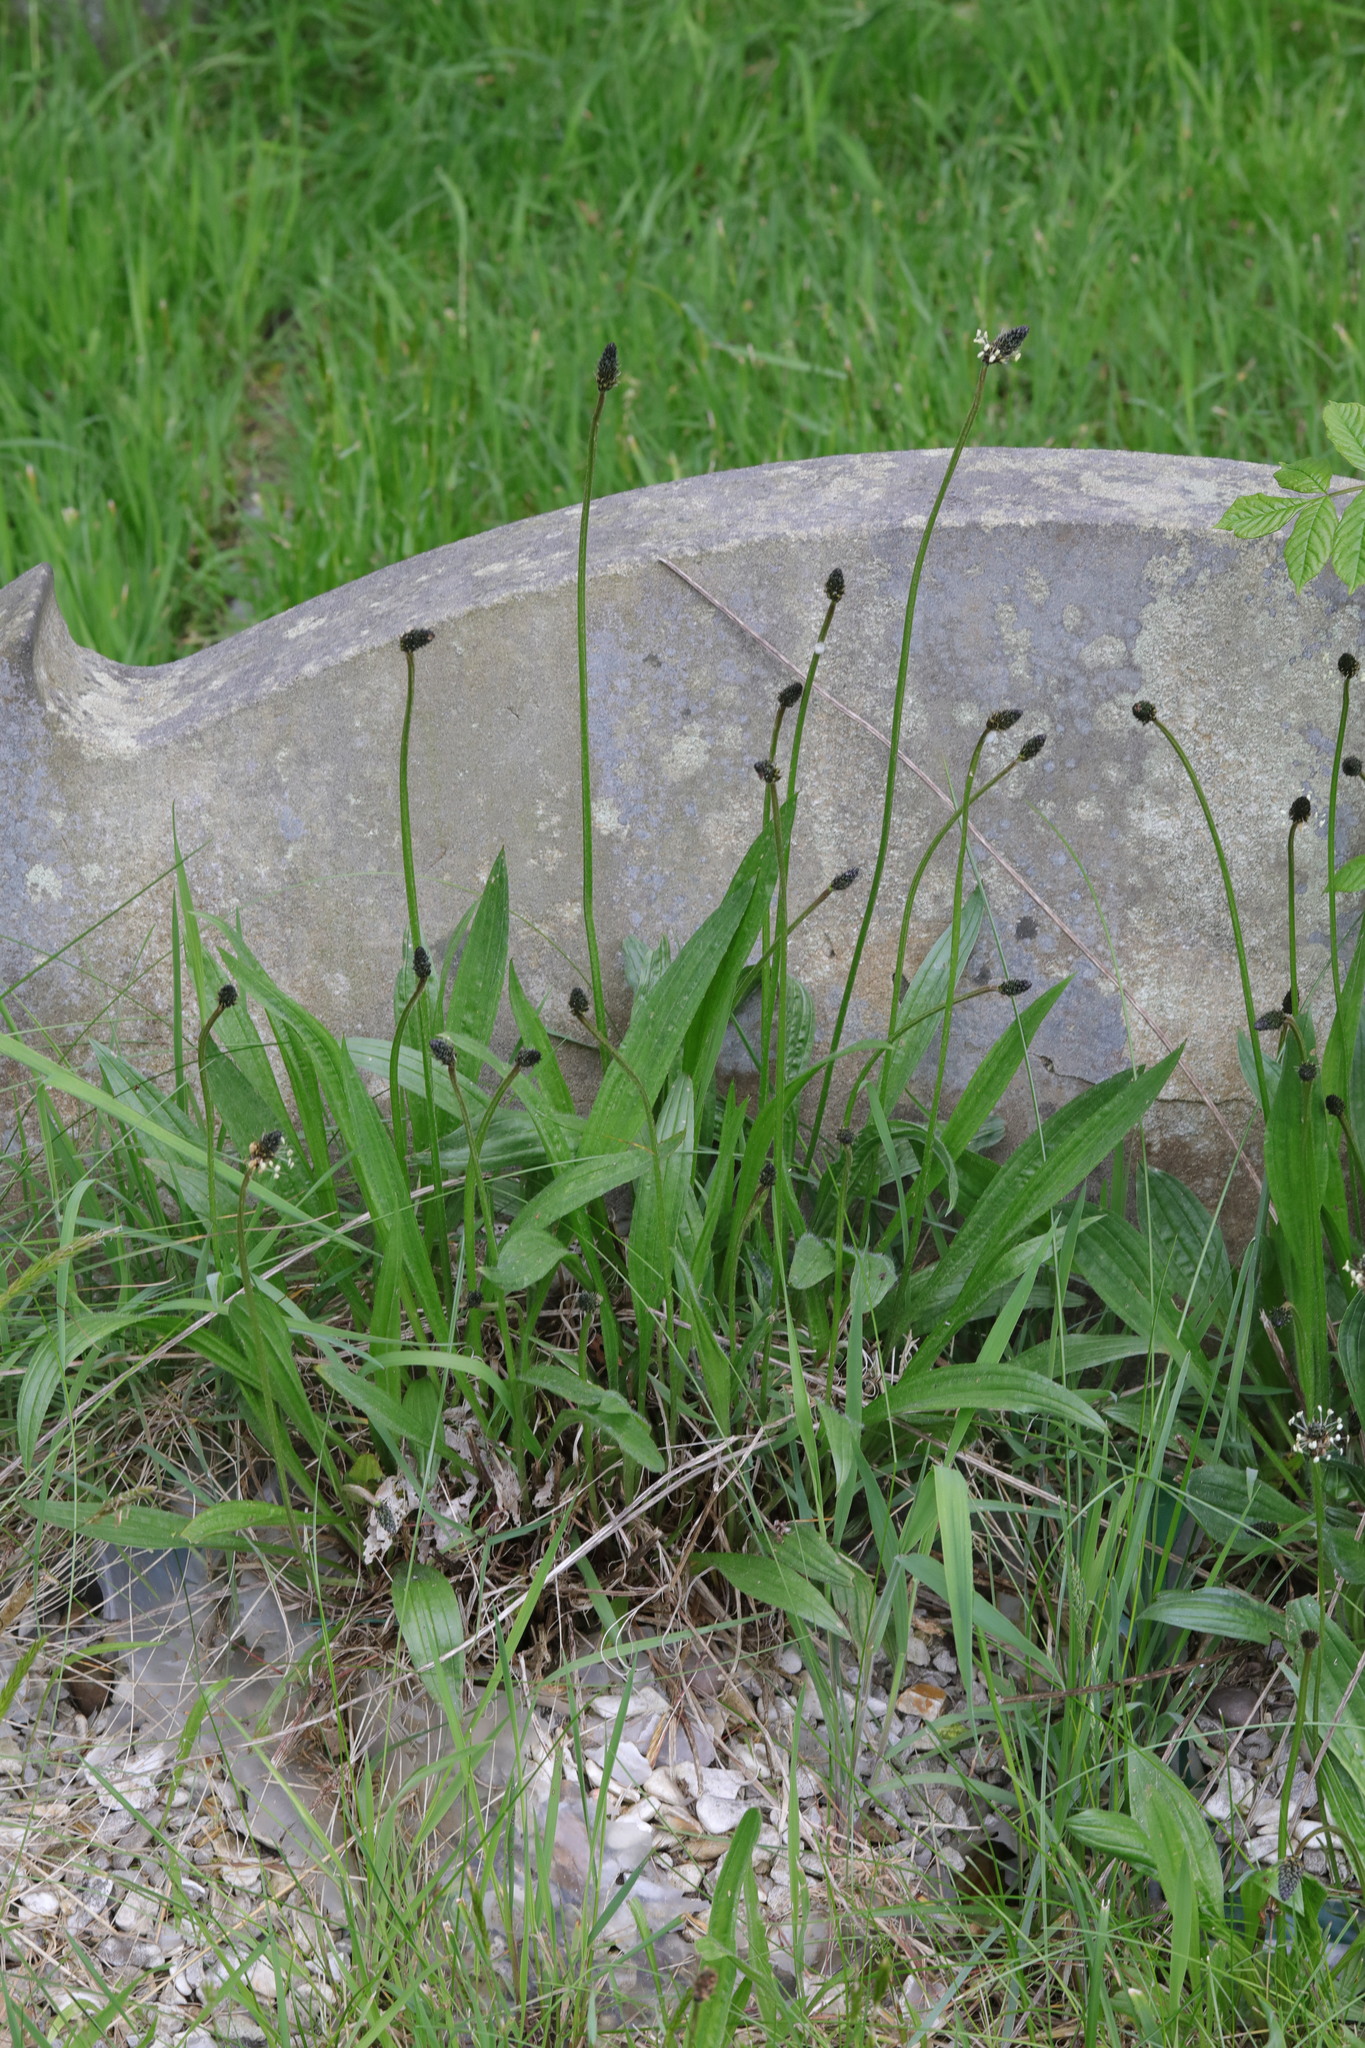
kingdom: Plantae
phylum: Tracheophyta
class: Magnoliopsida
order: Lamiales
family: Plantaginaceae
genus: Plantago
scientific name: Plantago lanceolata
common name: Ribwort plantain
